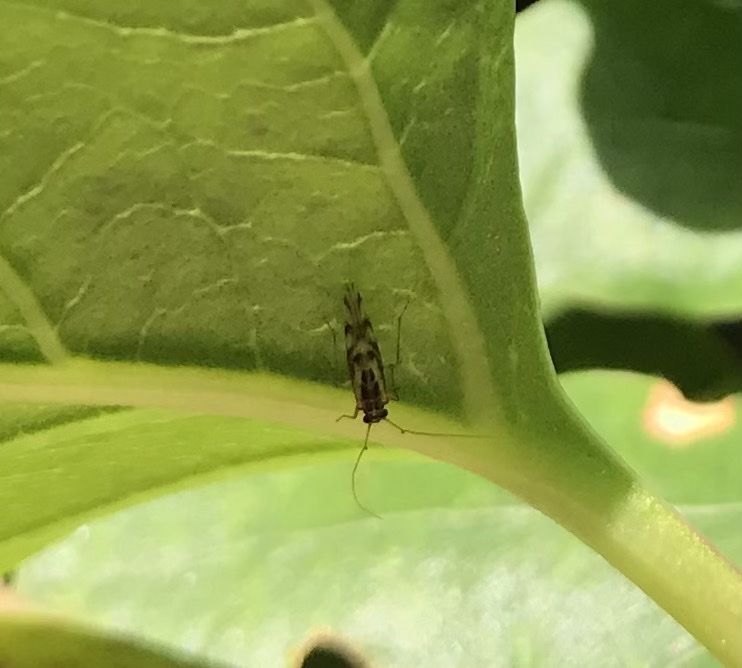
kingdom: Animalia
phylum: Arthropoda
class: Insecta
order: Psocodea
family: Stenopsocidae
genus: Graphopsocus
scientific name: Graphopsocus cruciatus
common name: Lizard bark louse
